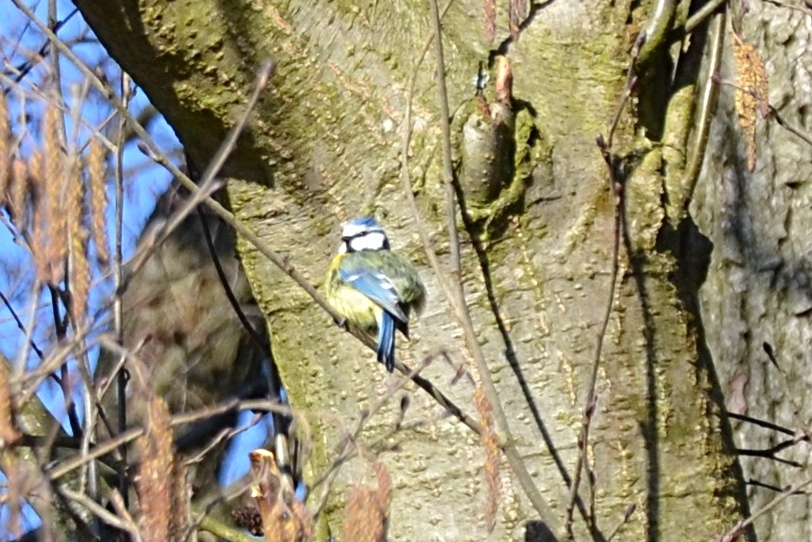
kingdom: Animalia
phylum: Chordata
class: Aves
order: Passeriformes
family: Paridae
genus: Cyanistes
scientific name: Cyanistes caeruleus
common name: Eurasian blue tit
